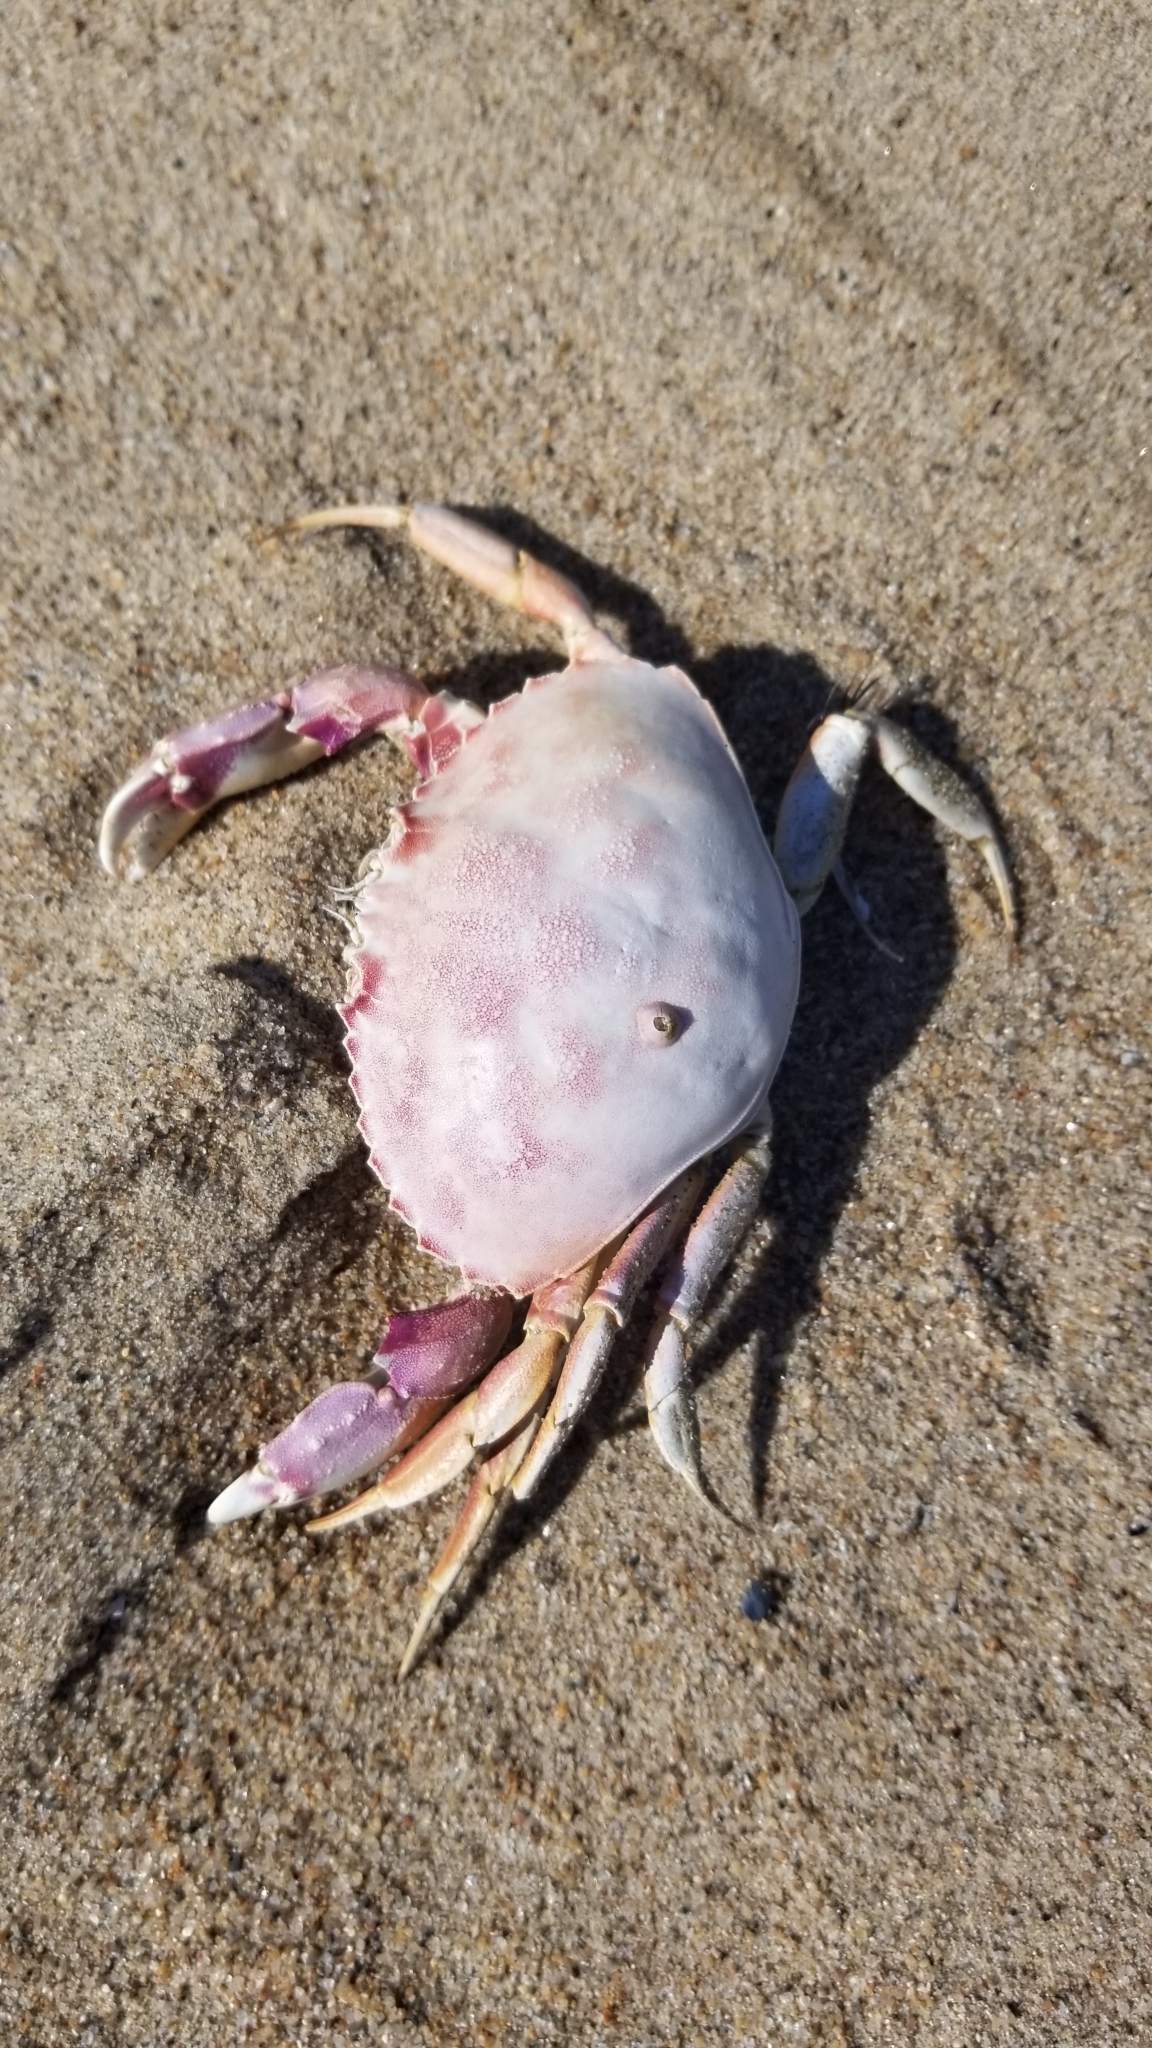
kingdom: Animalia
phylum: Arthropoda
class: Malacostraca
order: Decapoda
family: Cancridae
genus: Metacarcinus
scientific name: Metacarcinus gracilis
